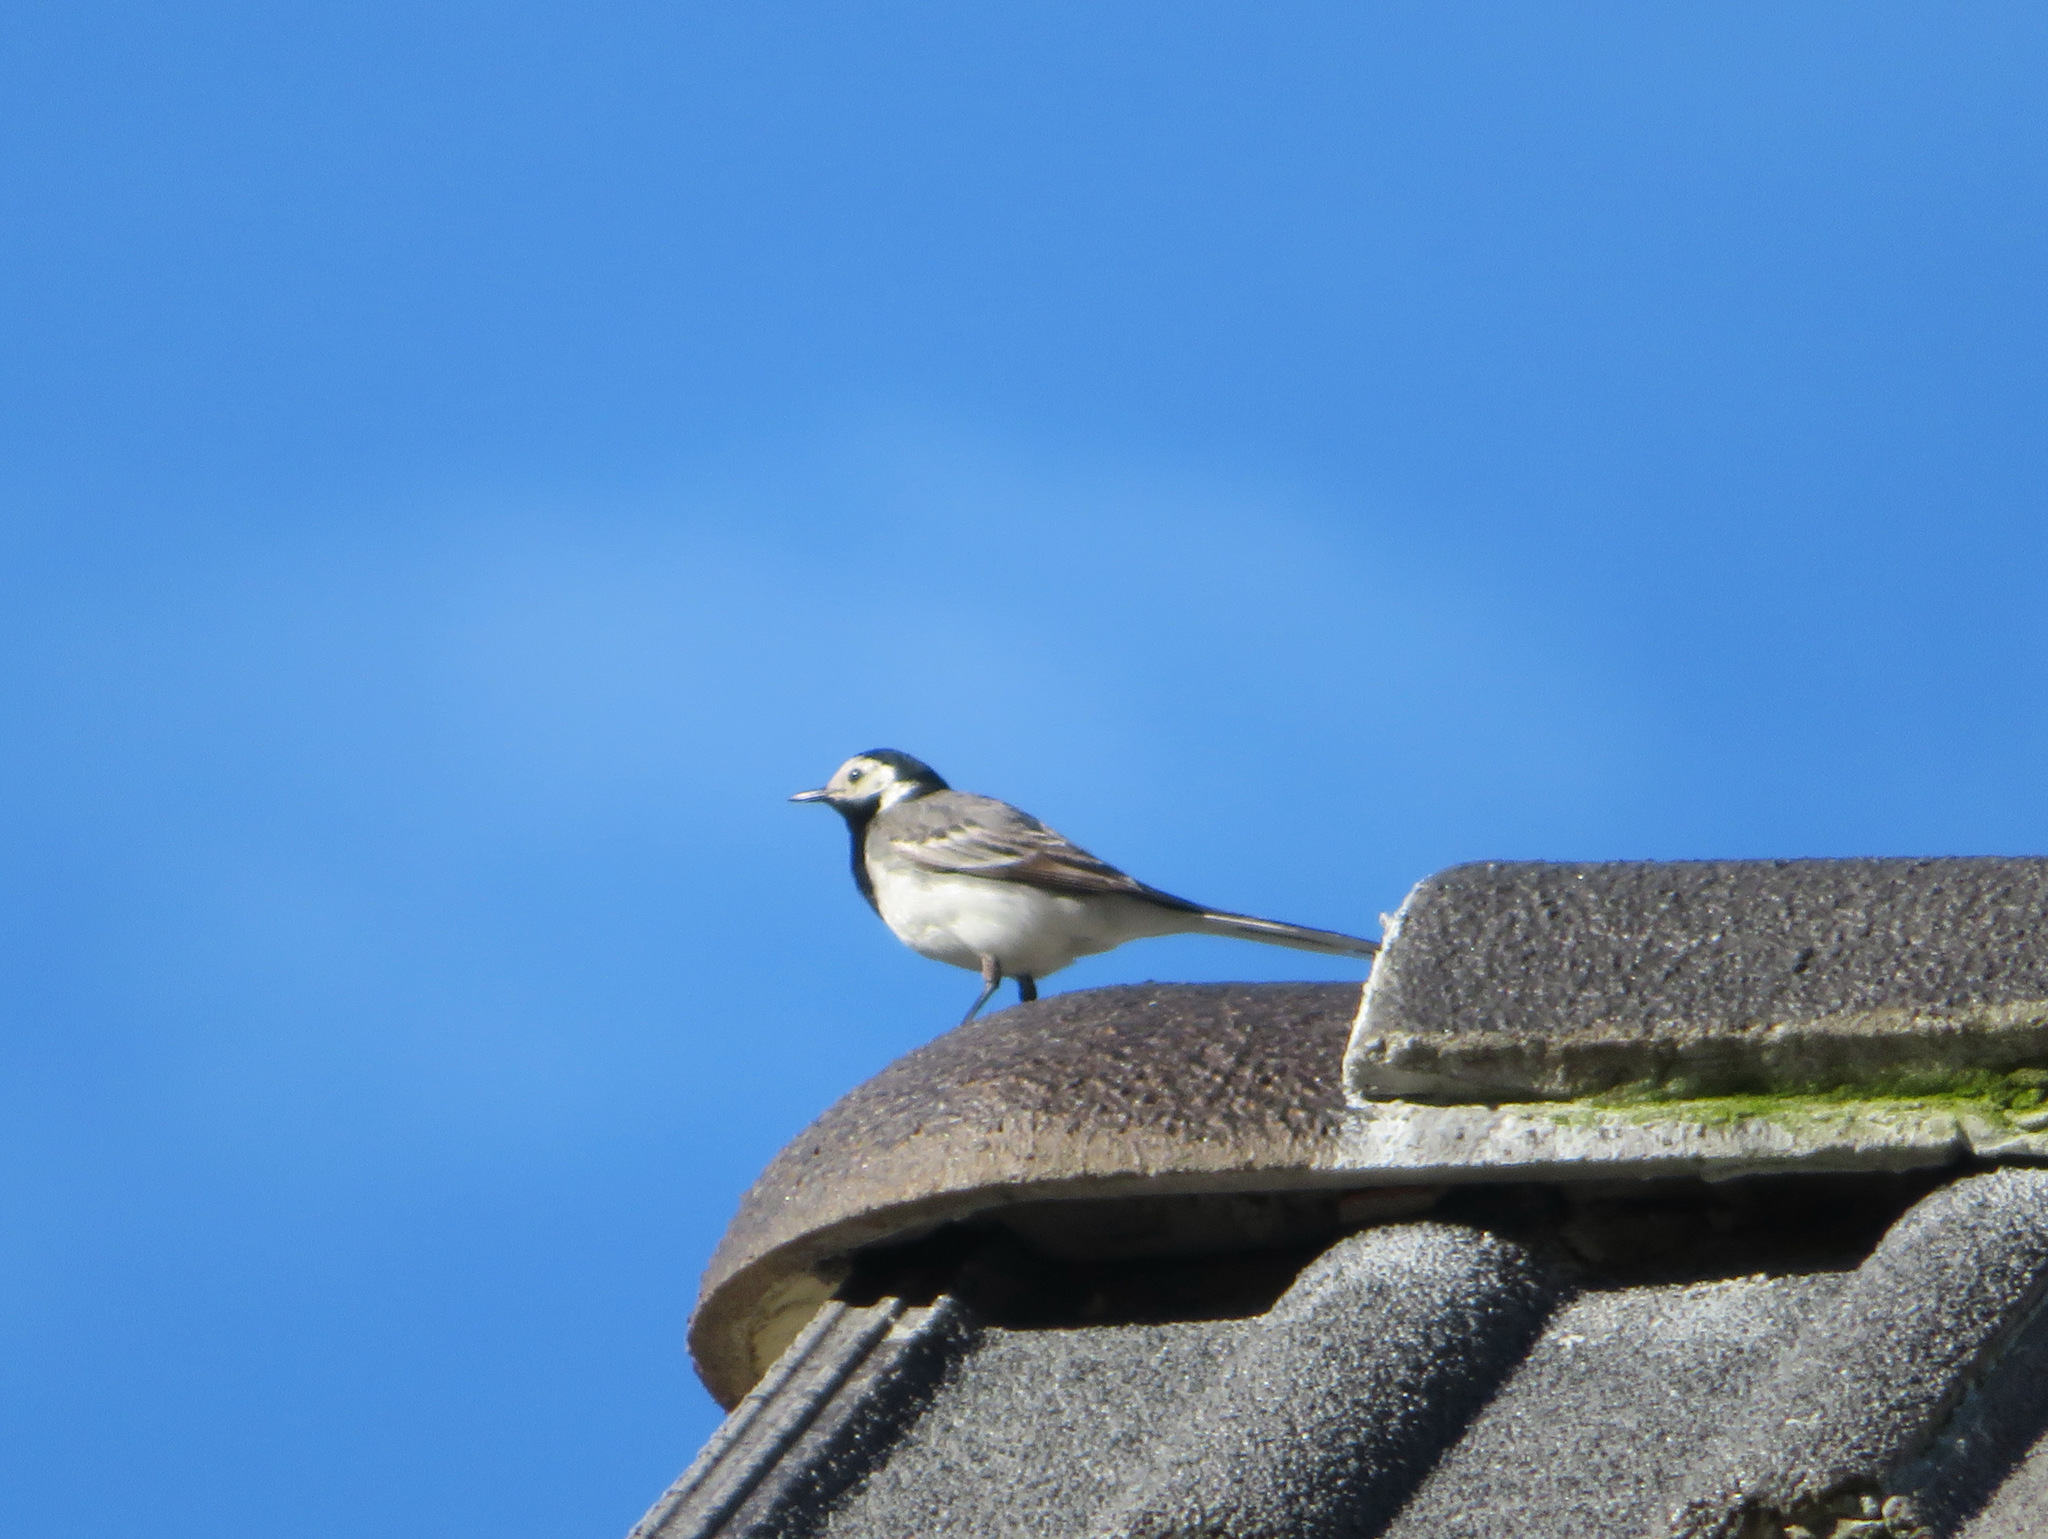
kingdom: Animalia
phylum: Chordata
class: Aves
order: Passeriformes
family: Motacillidae
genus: Motacilla
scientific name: Motacilla alba
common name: White wagtail
